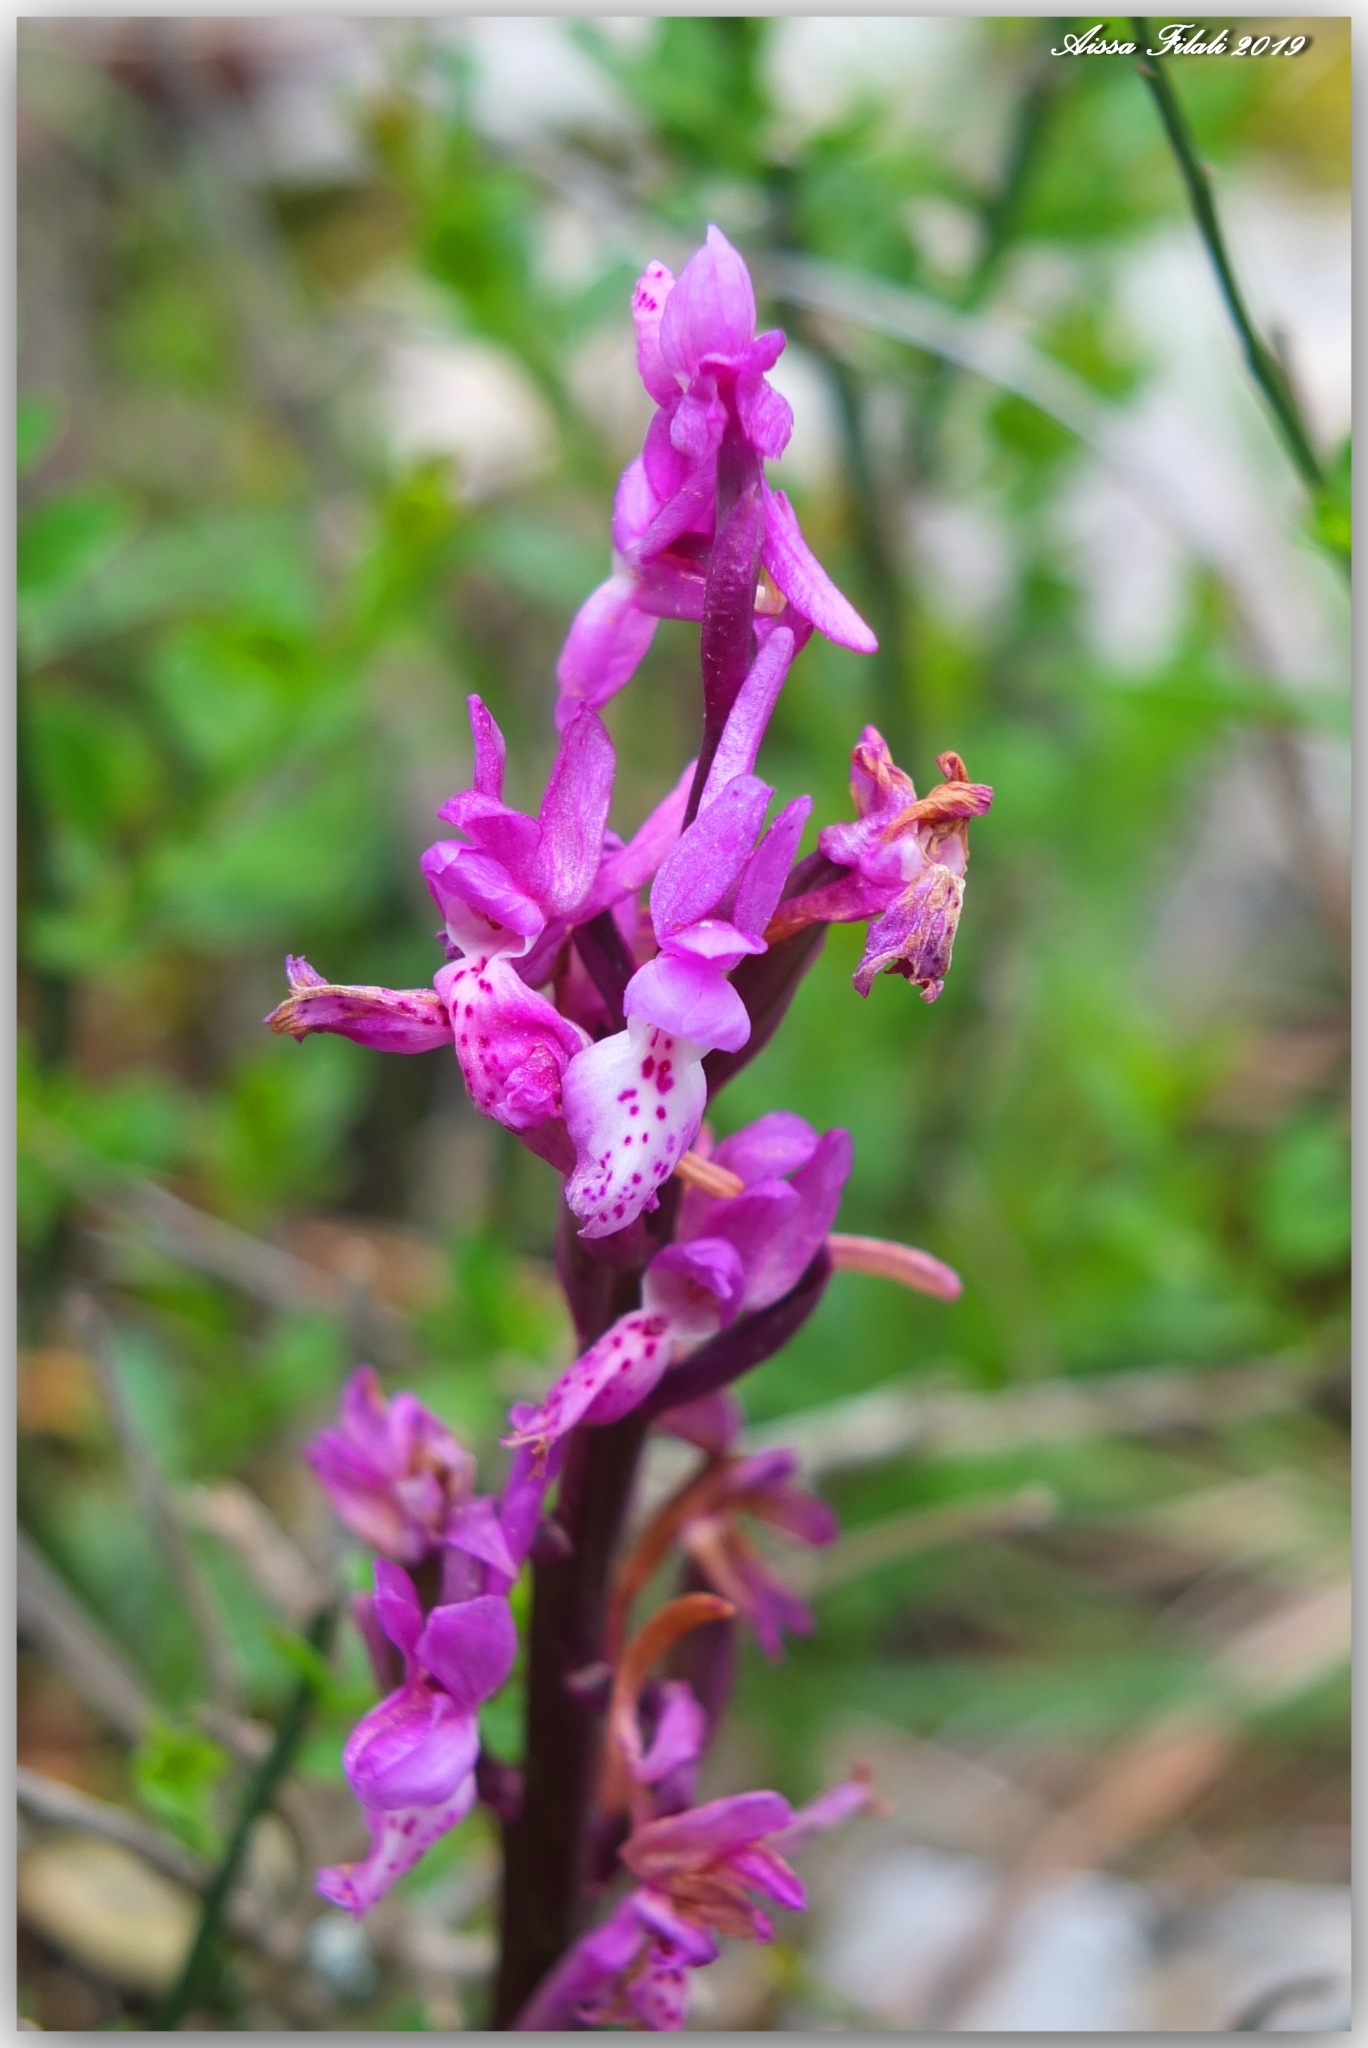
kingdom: Plantae
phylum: Tracheophyta
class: Liliopsida
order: Asparagales
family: Orchidaceae
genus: Orchis
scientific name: Orchis olbiensis
